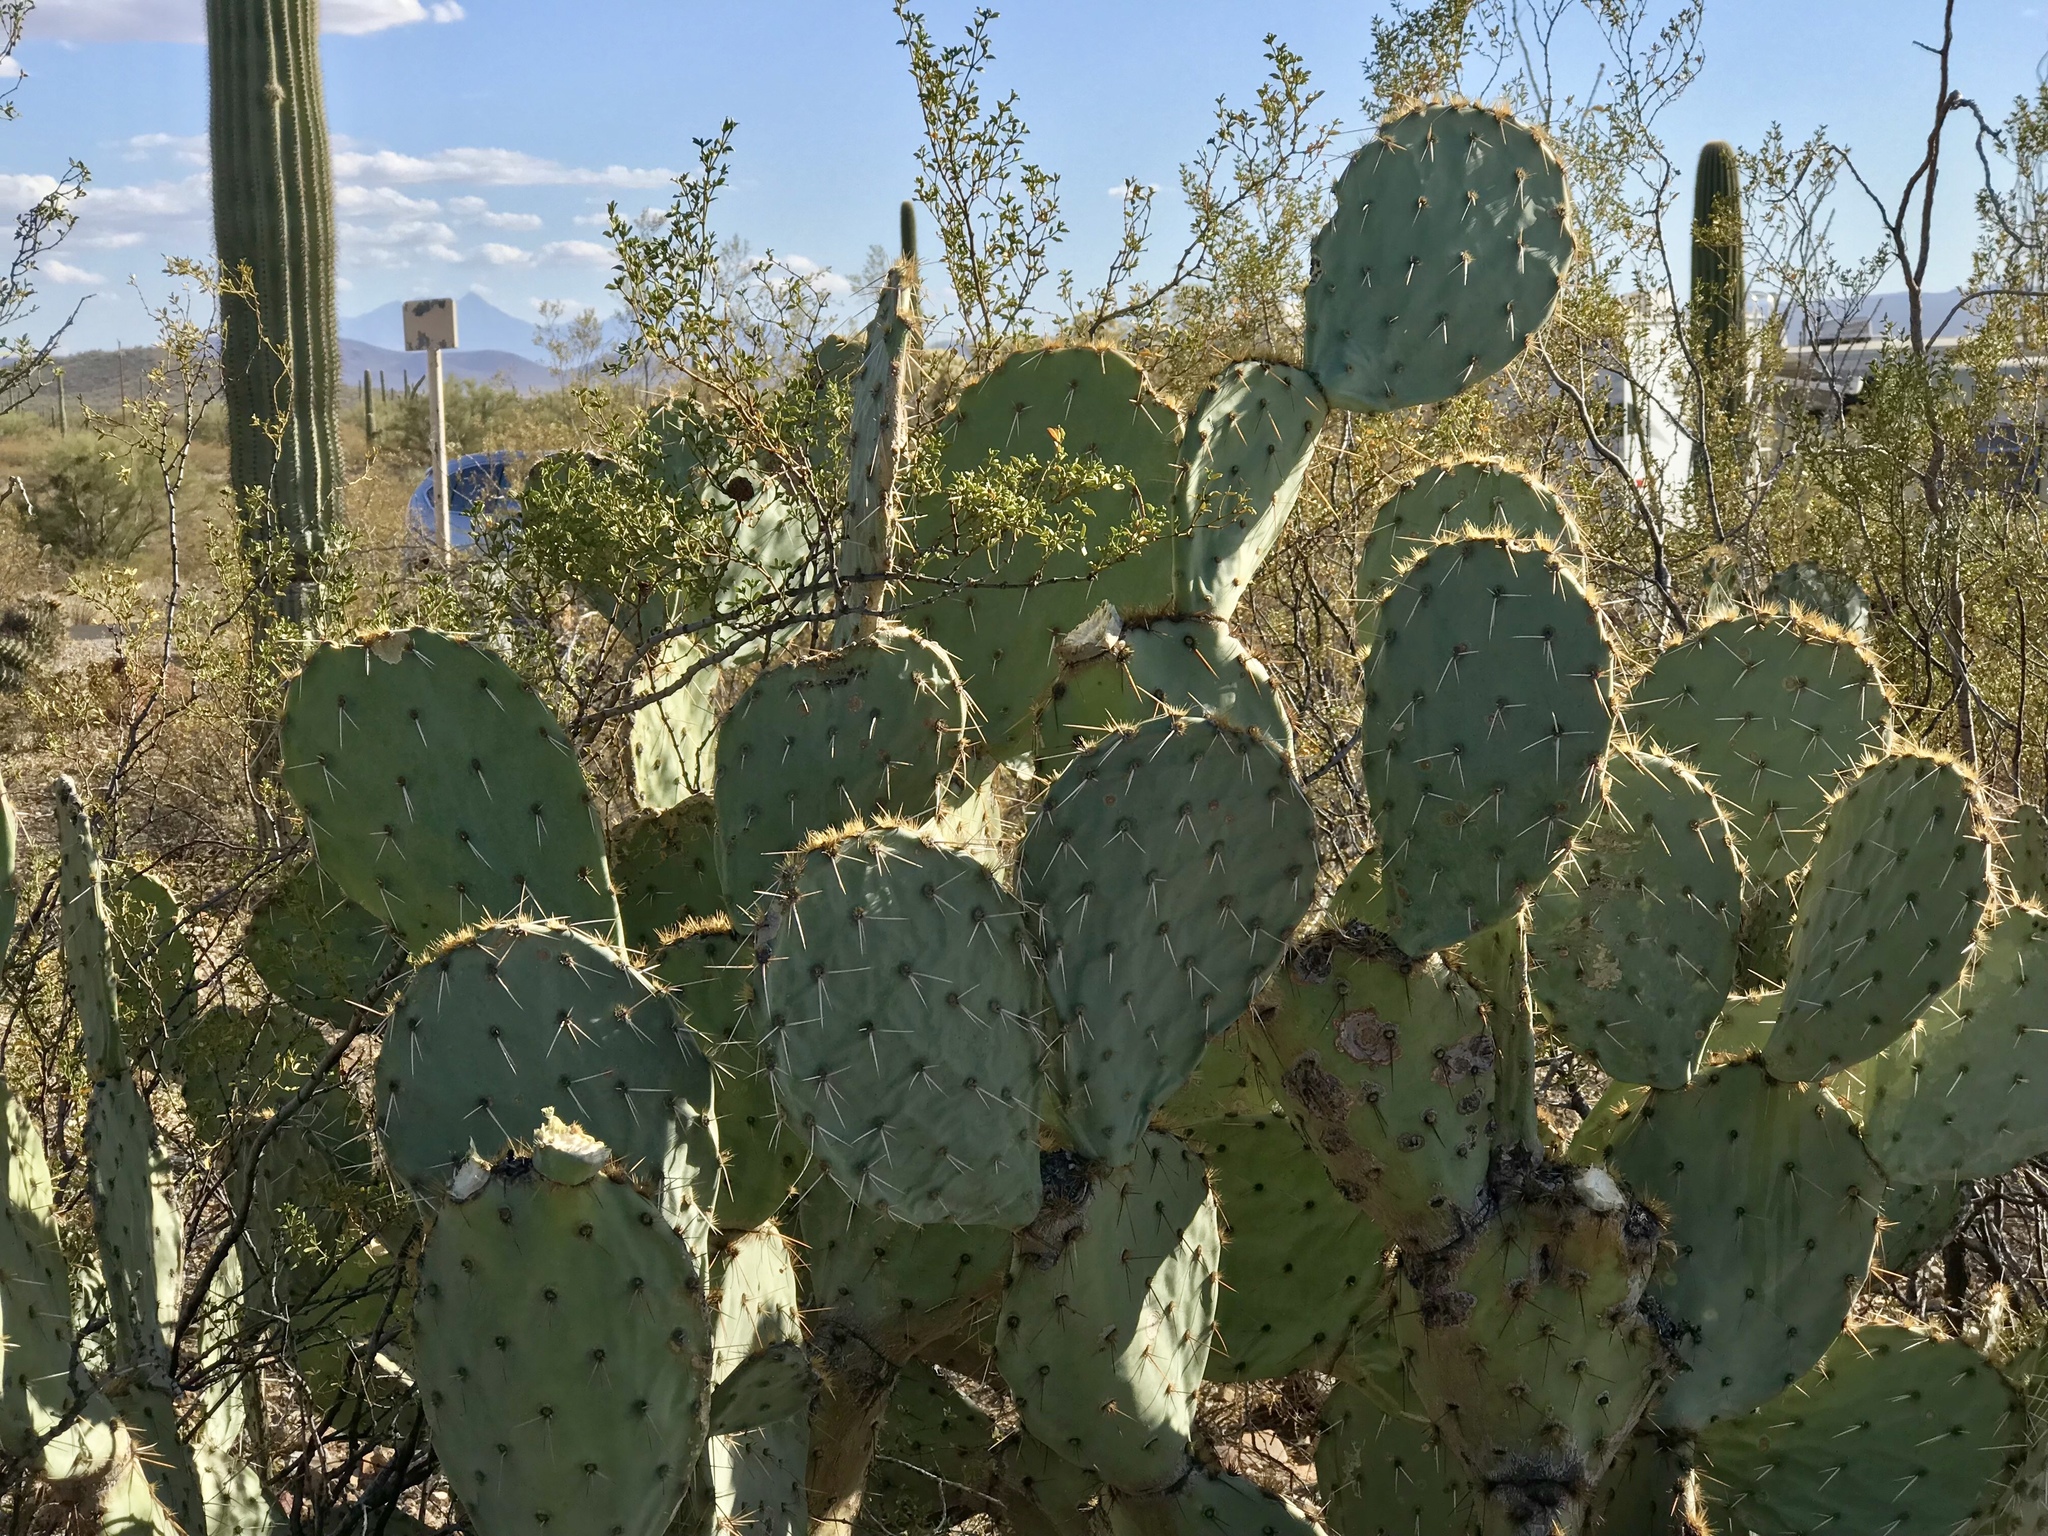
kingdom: Plantae
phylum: Tracheophyta
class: Magnoliopsida
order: Caryophyllales
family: Cactaceae
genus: Opuntia
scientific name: Opuntia engelmannii
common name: Cactus-apple
